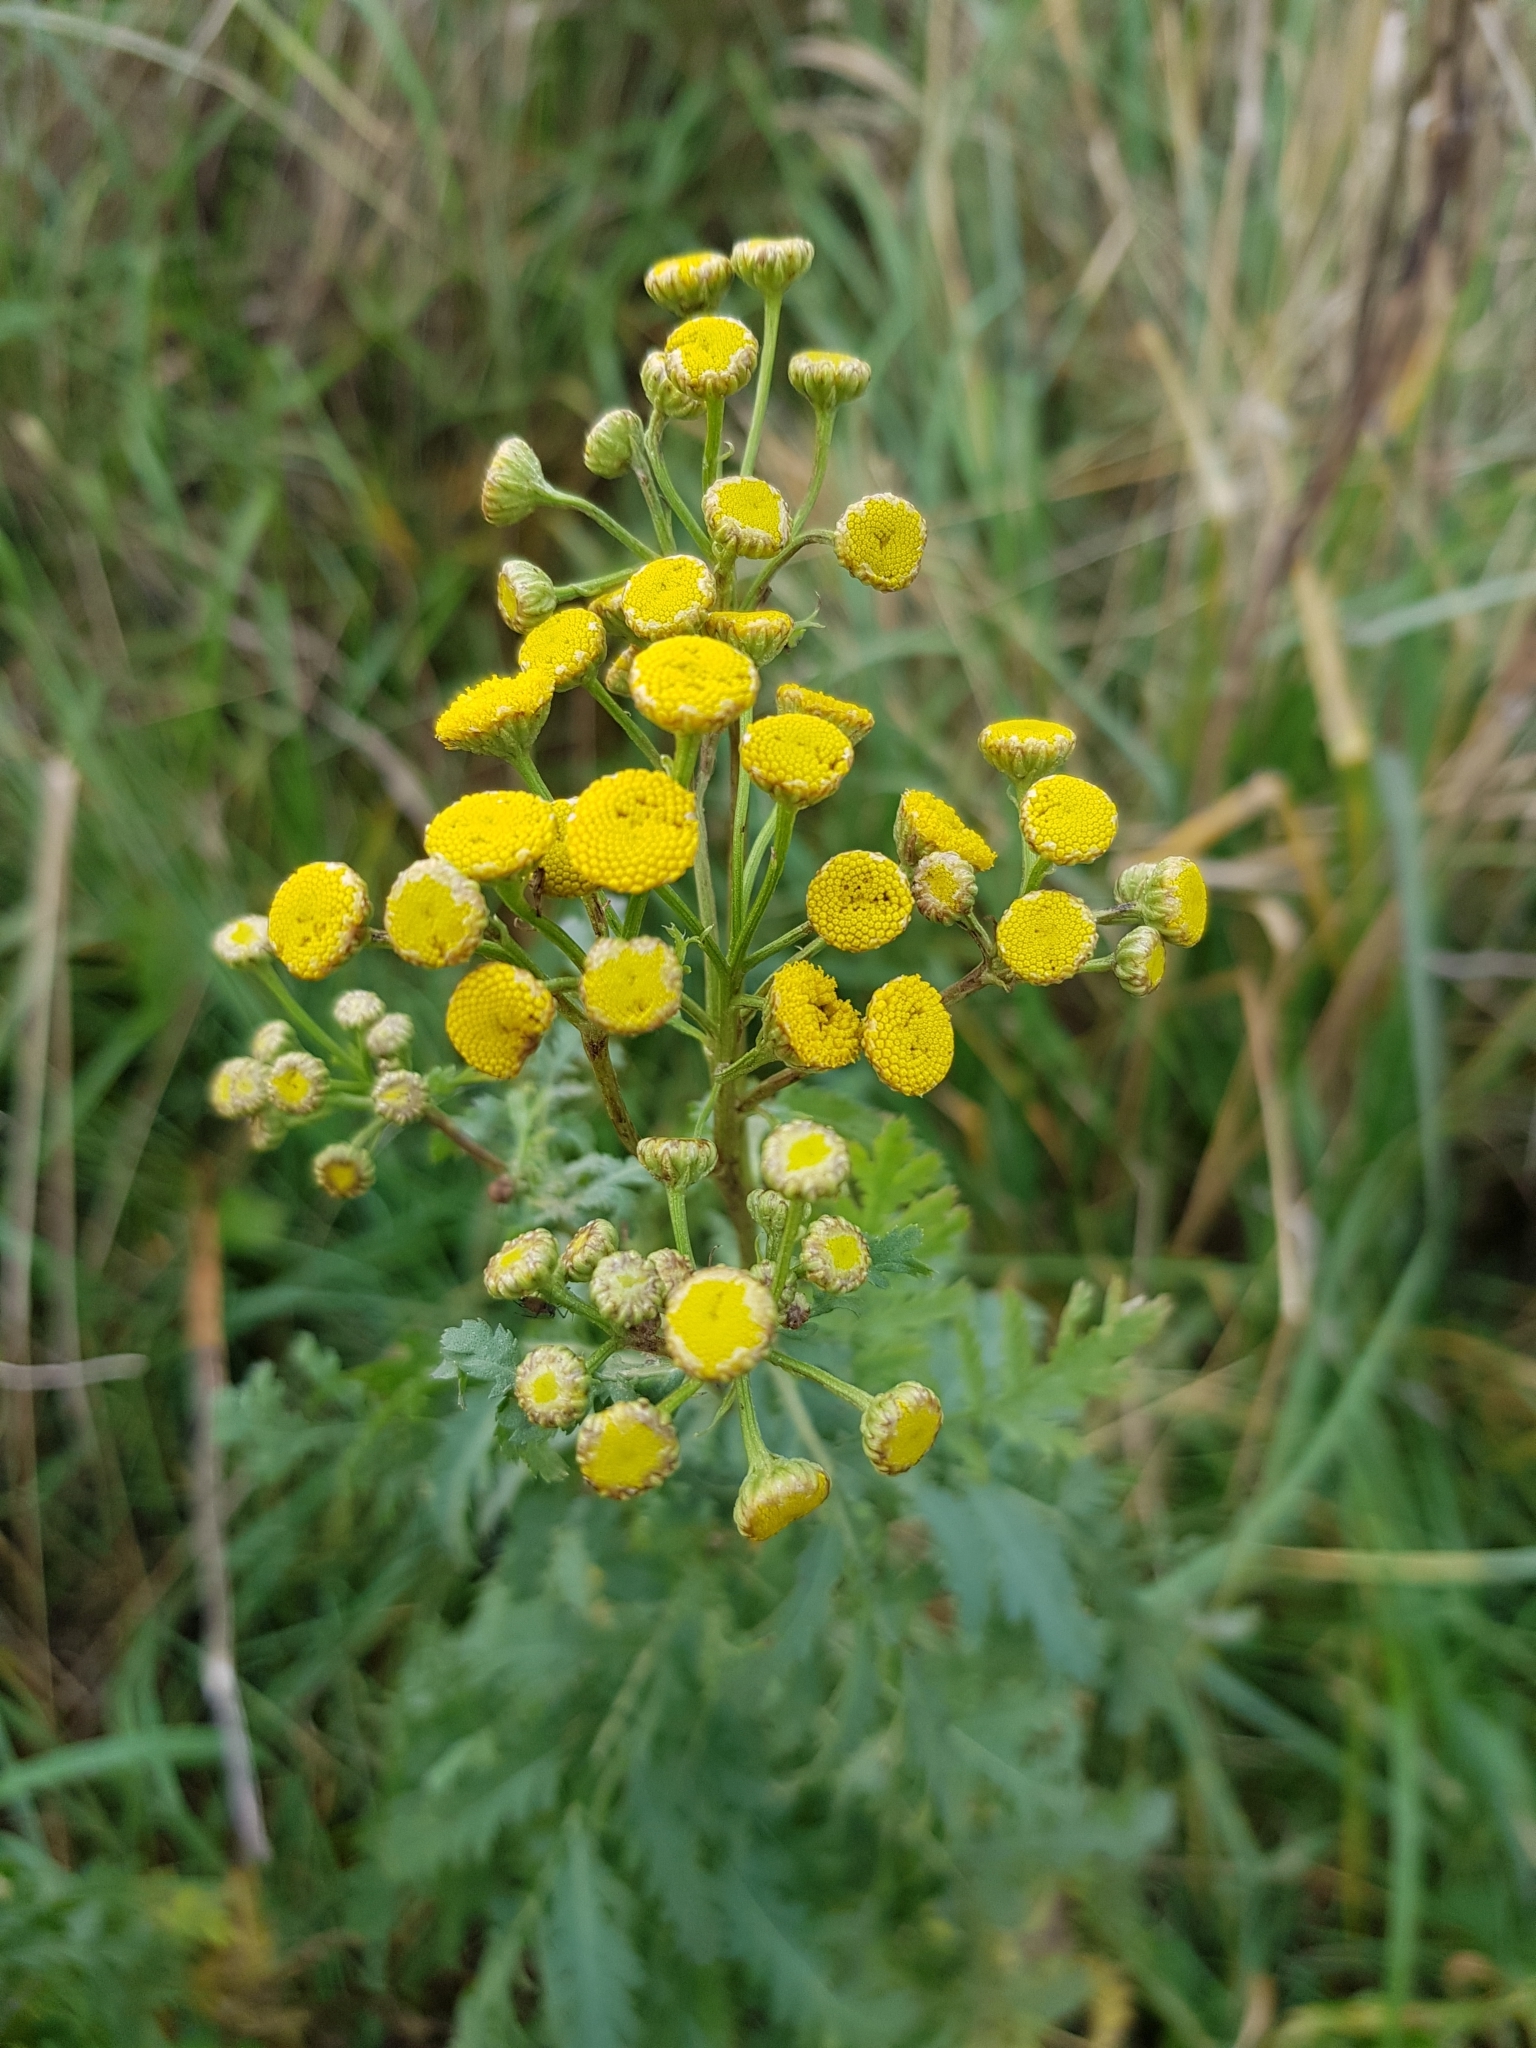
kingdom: Plantae
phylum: Tracheophyta
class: Magnoliopsida
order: Asterales
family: Asteraceae
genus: Tanacetum
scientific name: Tanacetum vulgare
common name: Common tansy
